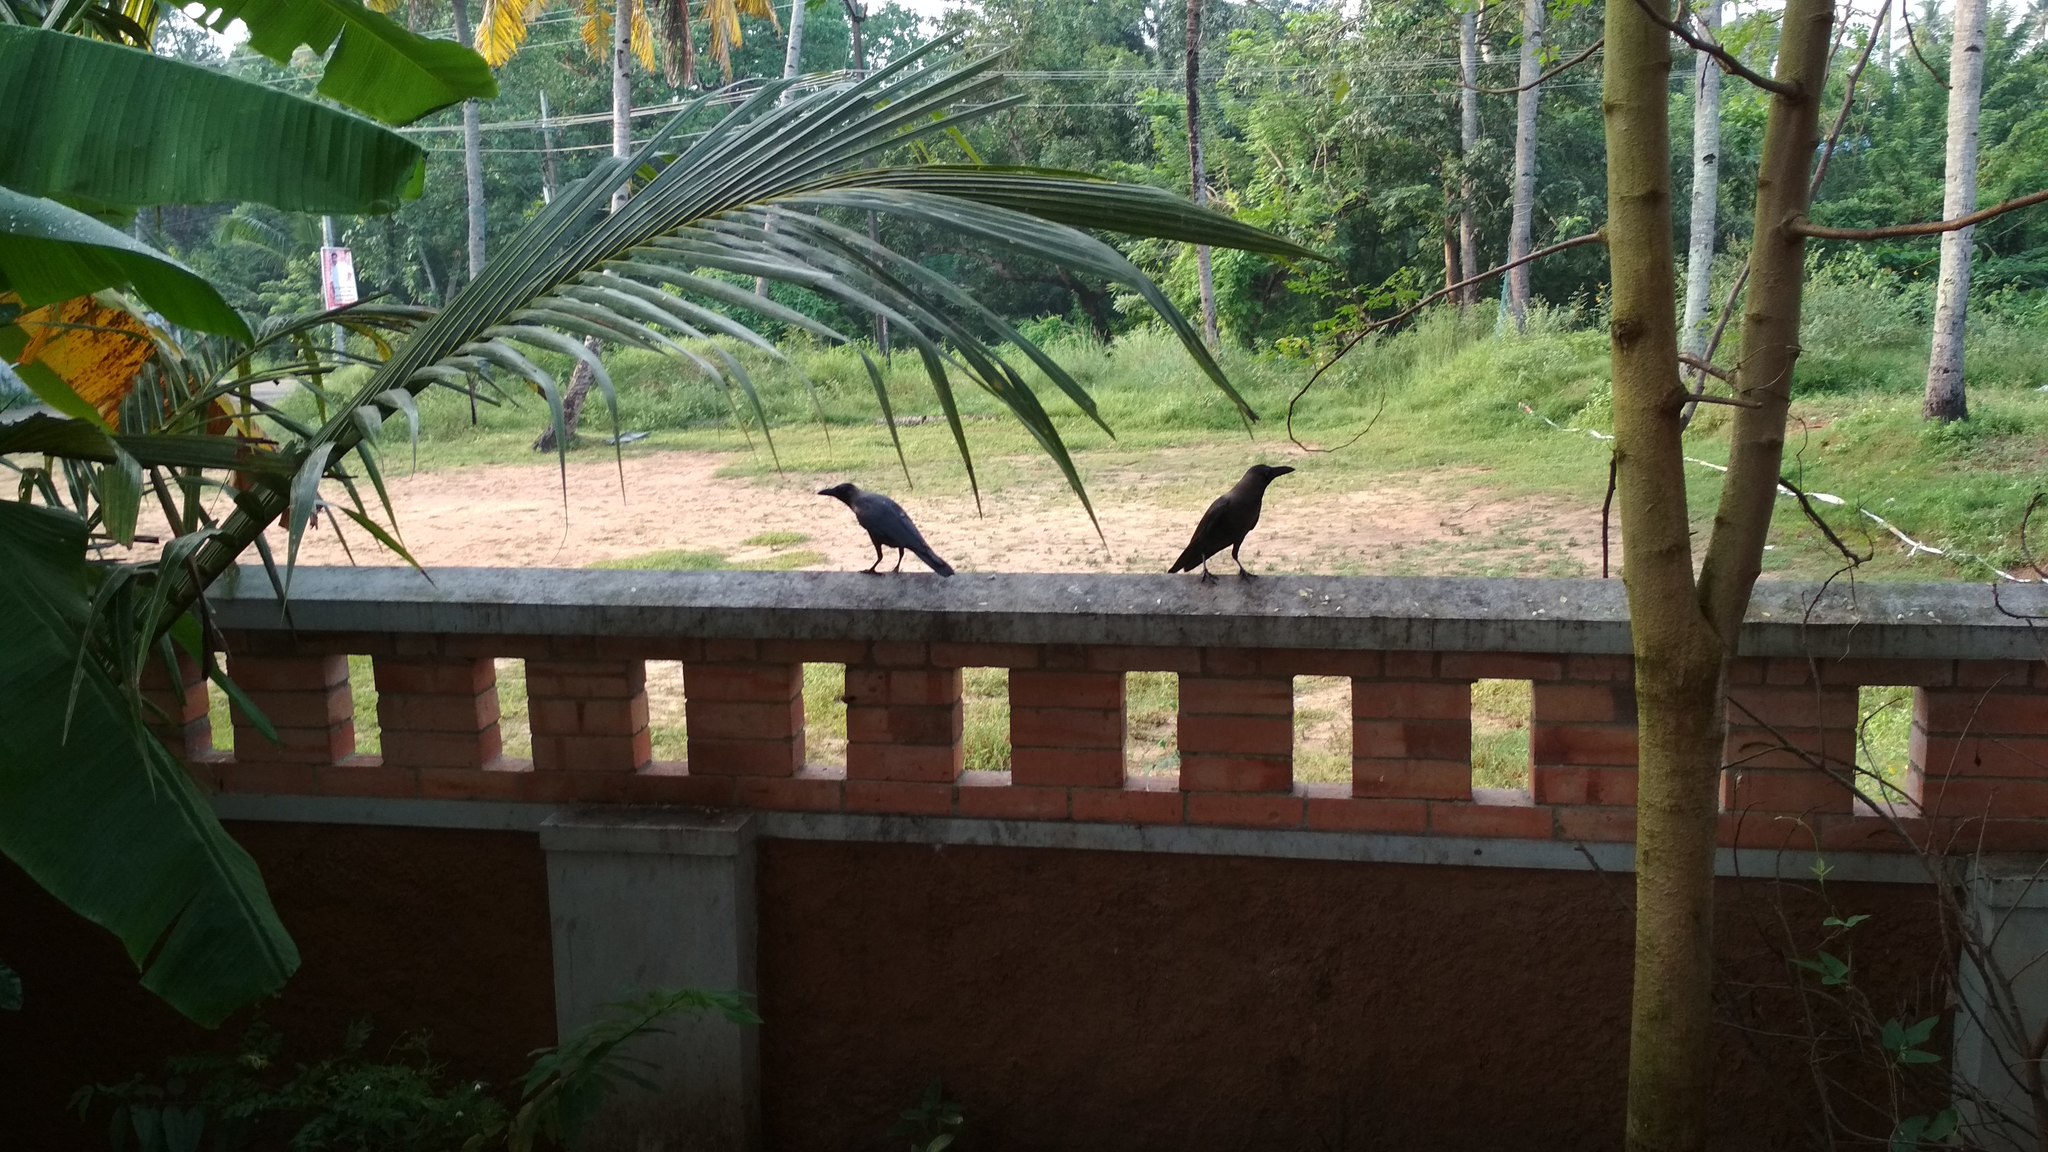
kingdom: Animalia
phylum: Chordata
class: Aves
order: Passeriformes
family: Corvidae
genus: Corvus
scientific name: Corvus splendens
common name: House crow
